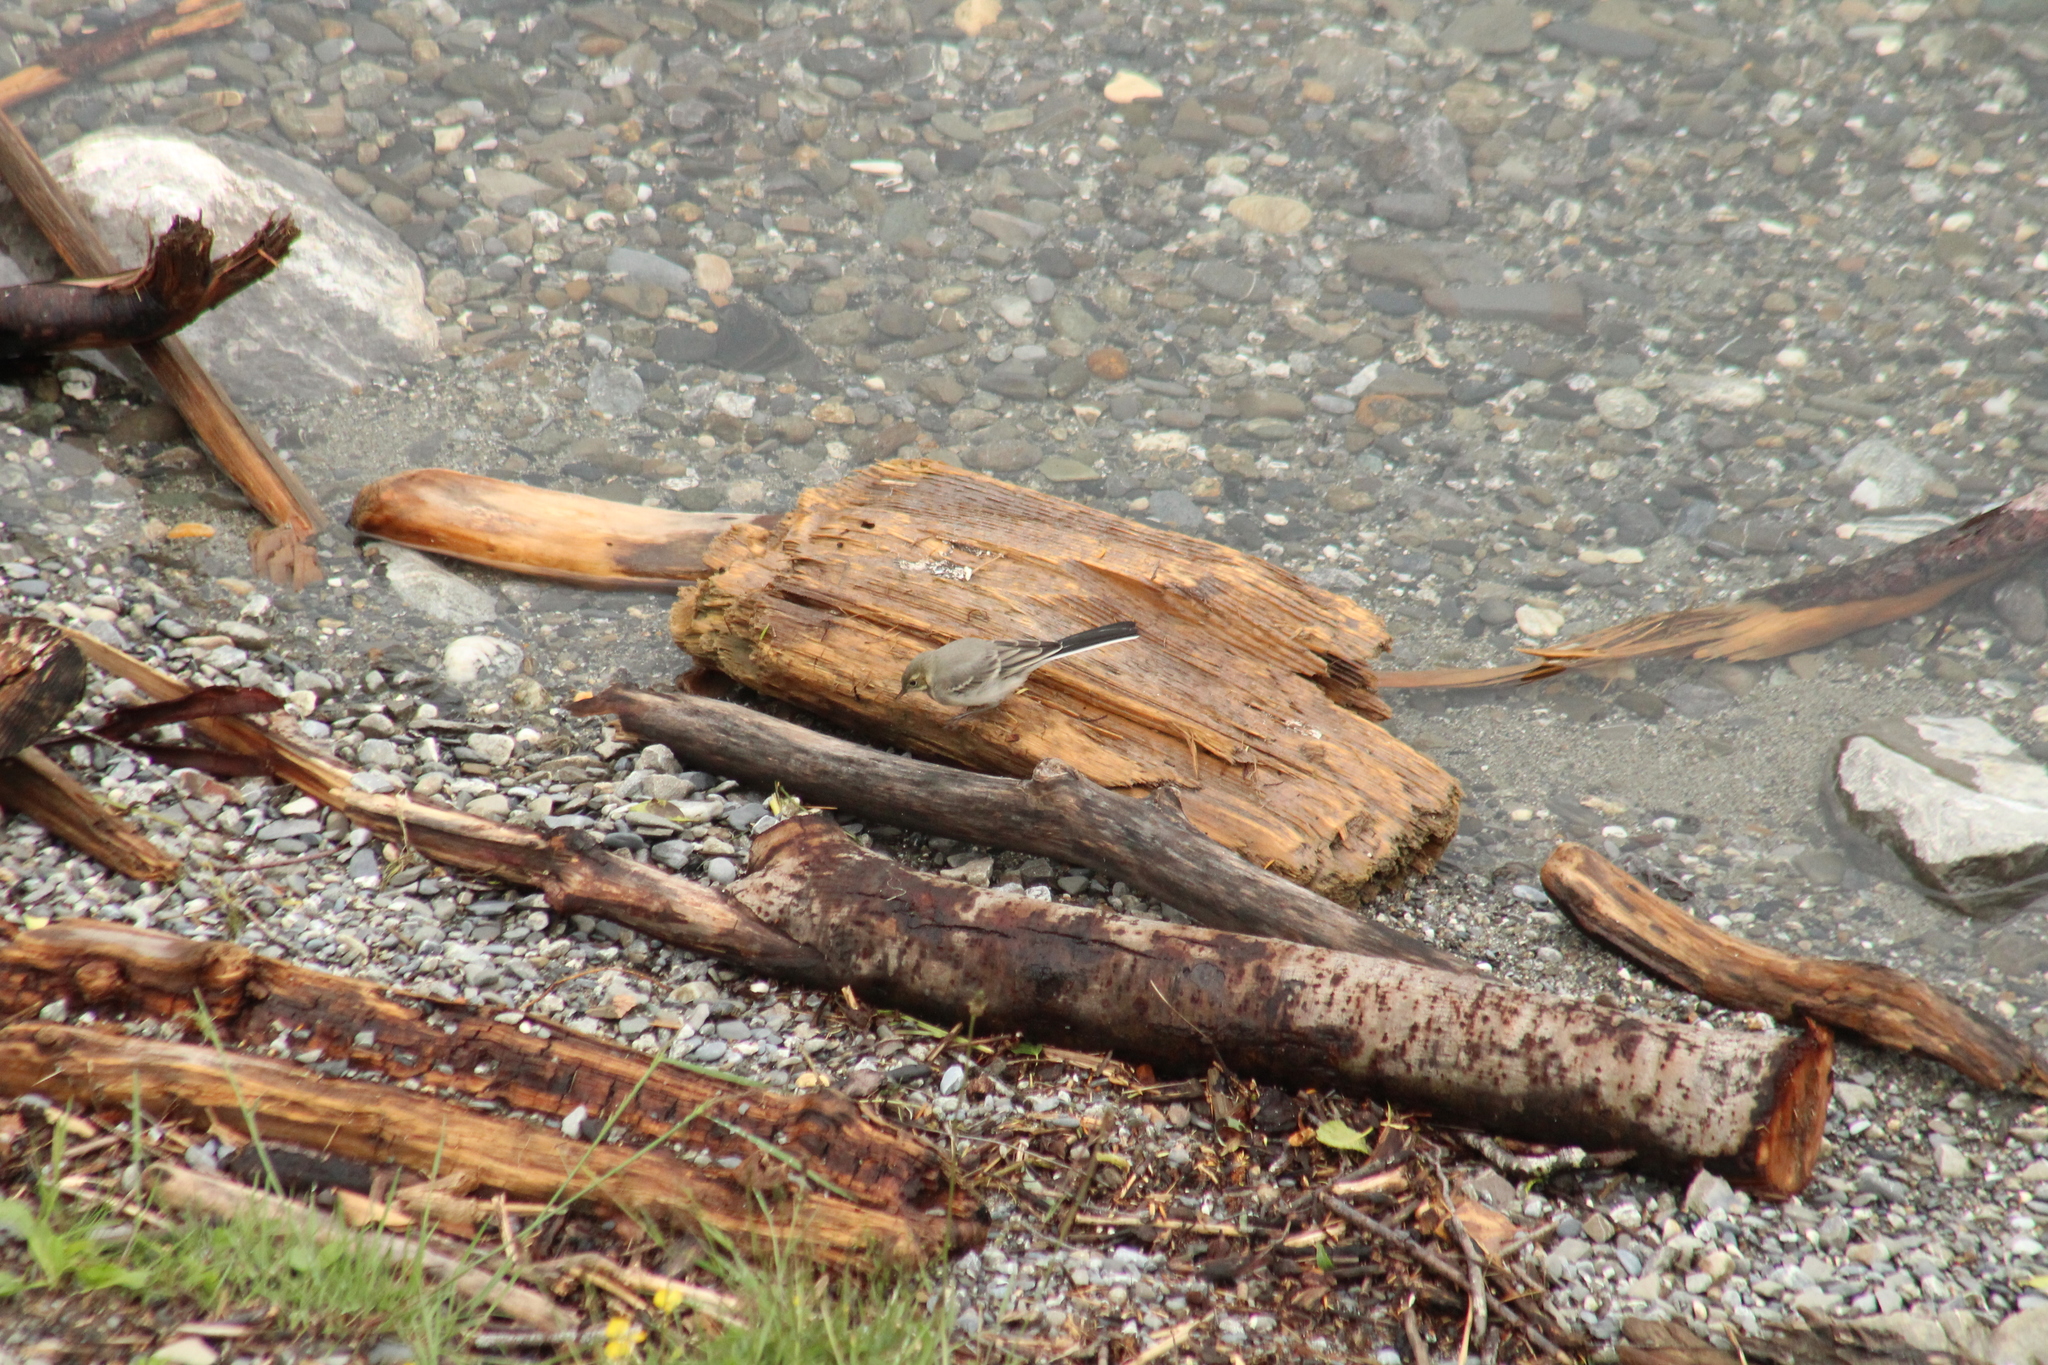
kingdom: Animalia
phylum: Chordata
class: Aves
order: Passeriformes
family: Motacillidae
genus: Motacilla
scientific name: Motacilla alba
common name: White wagtail
